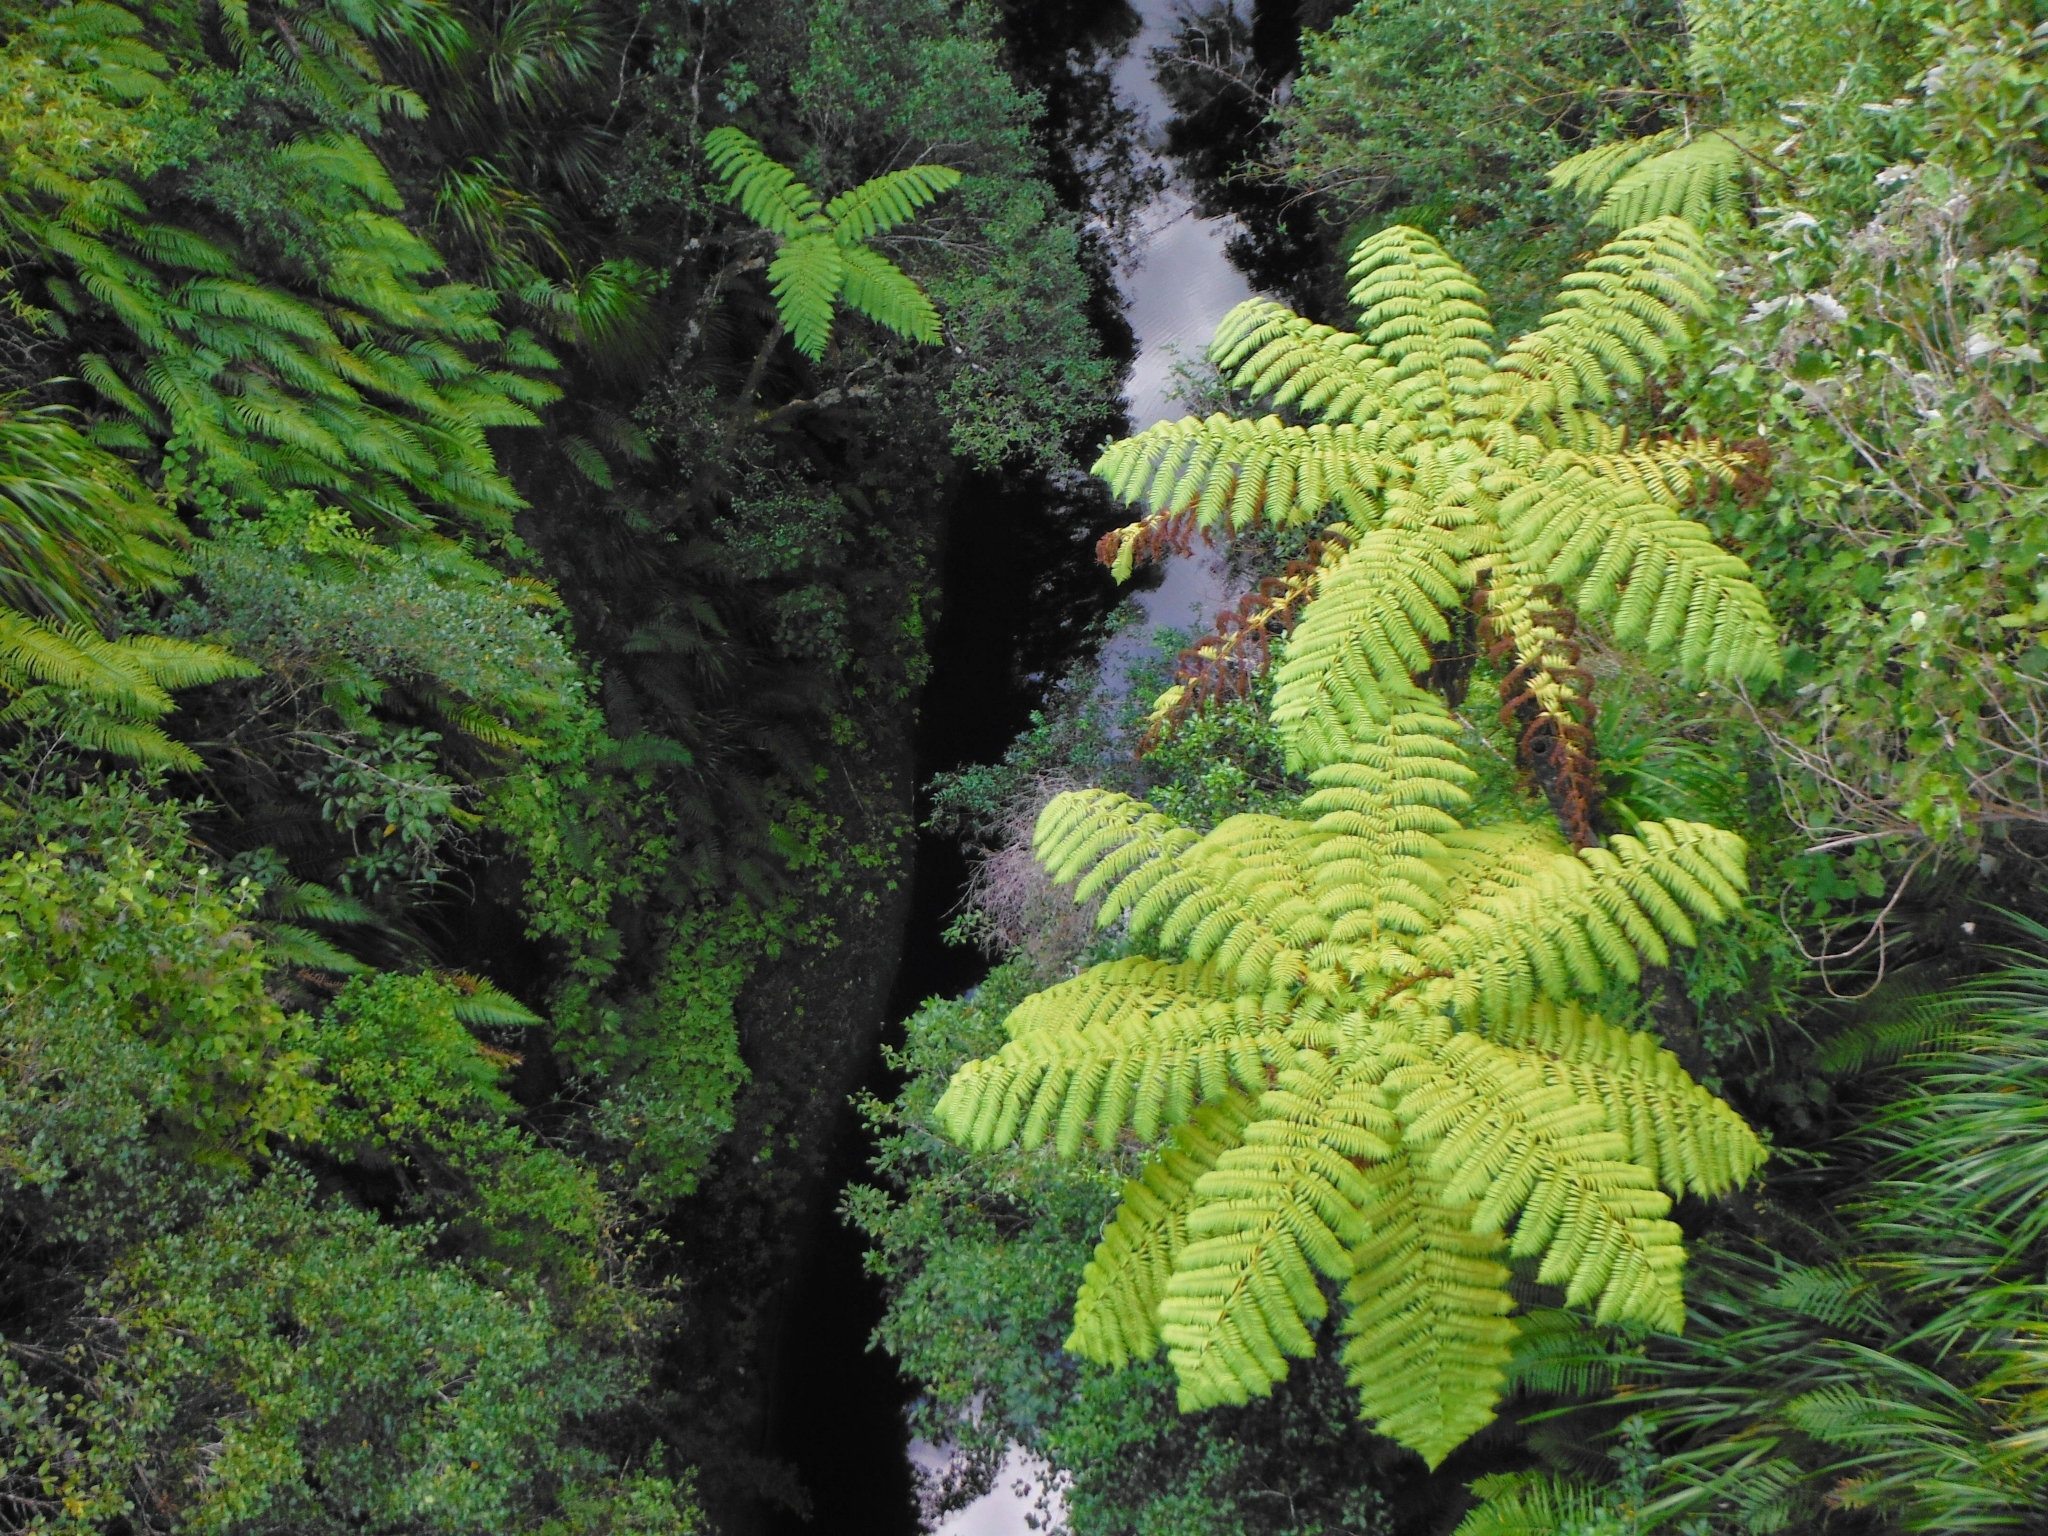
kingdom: Plantae
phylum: Tracheophyta
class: Polypodiopsida
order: Cyatheales
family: Cyatheaceae
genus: Sphaeropteris
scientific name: Sphaeropteris medullaris
